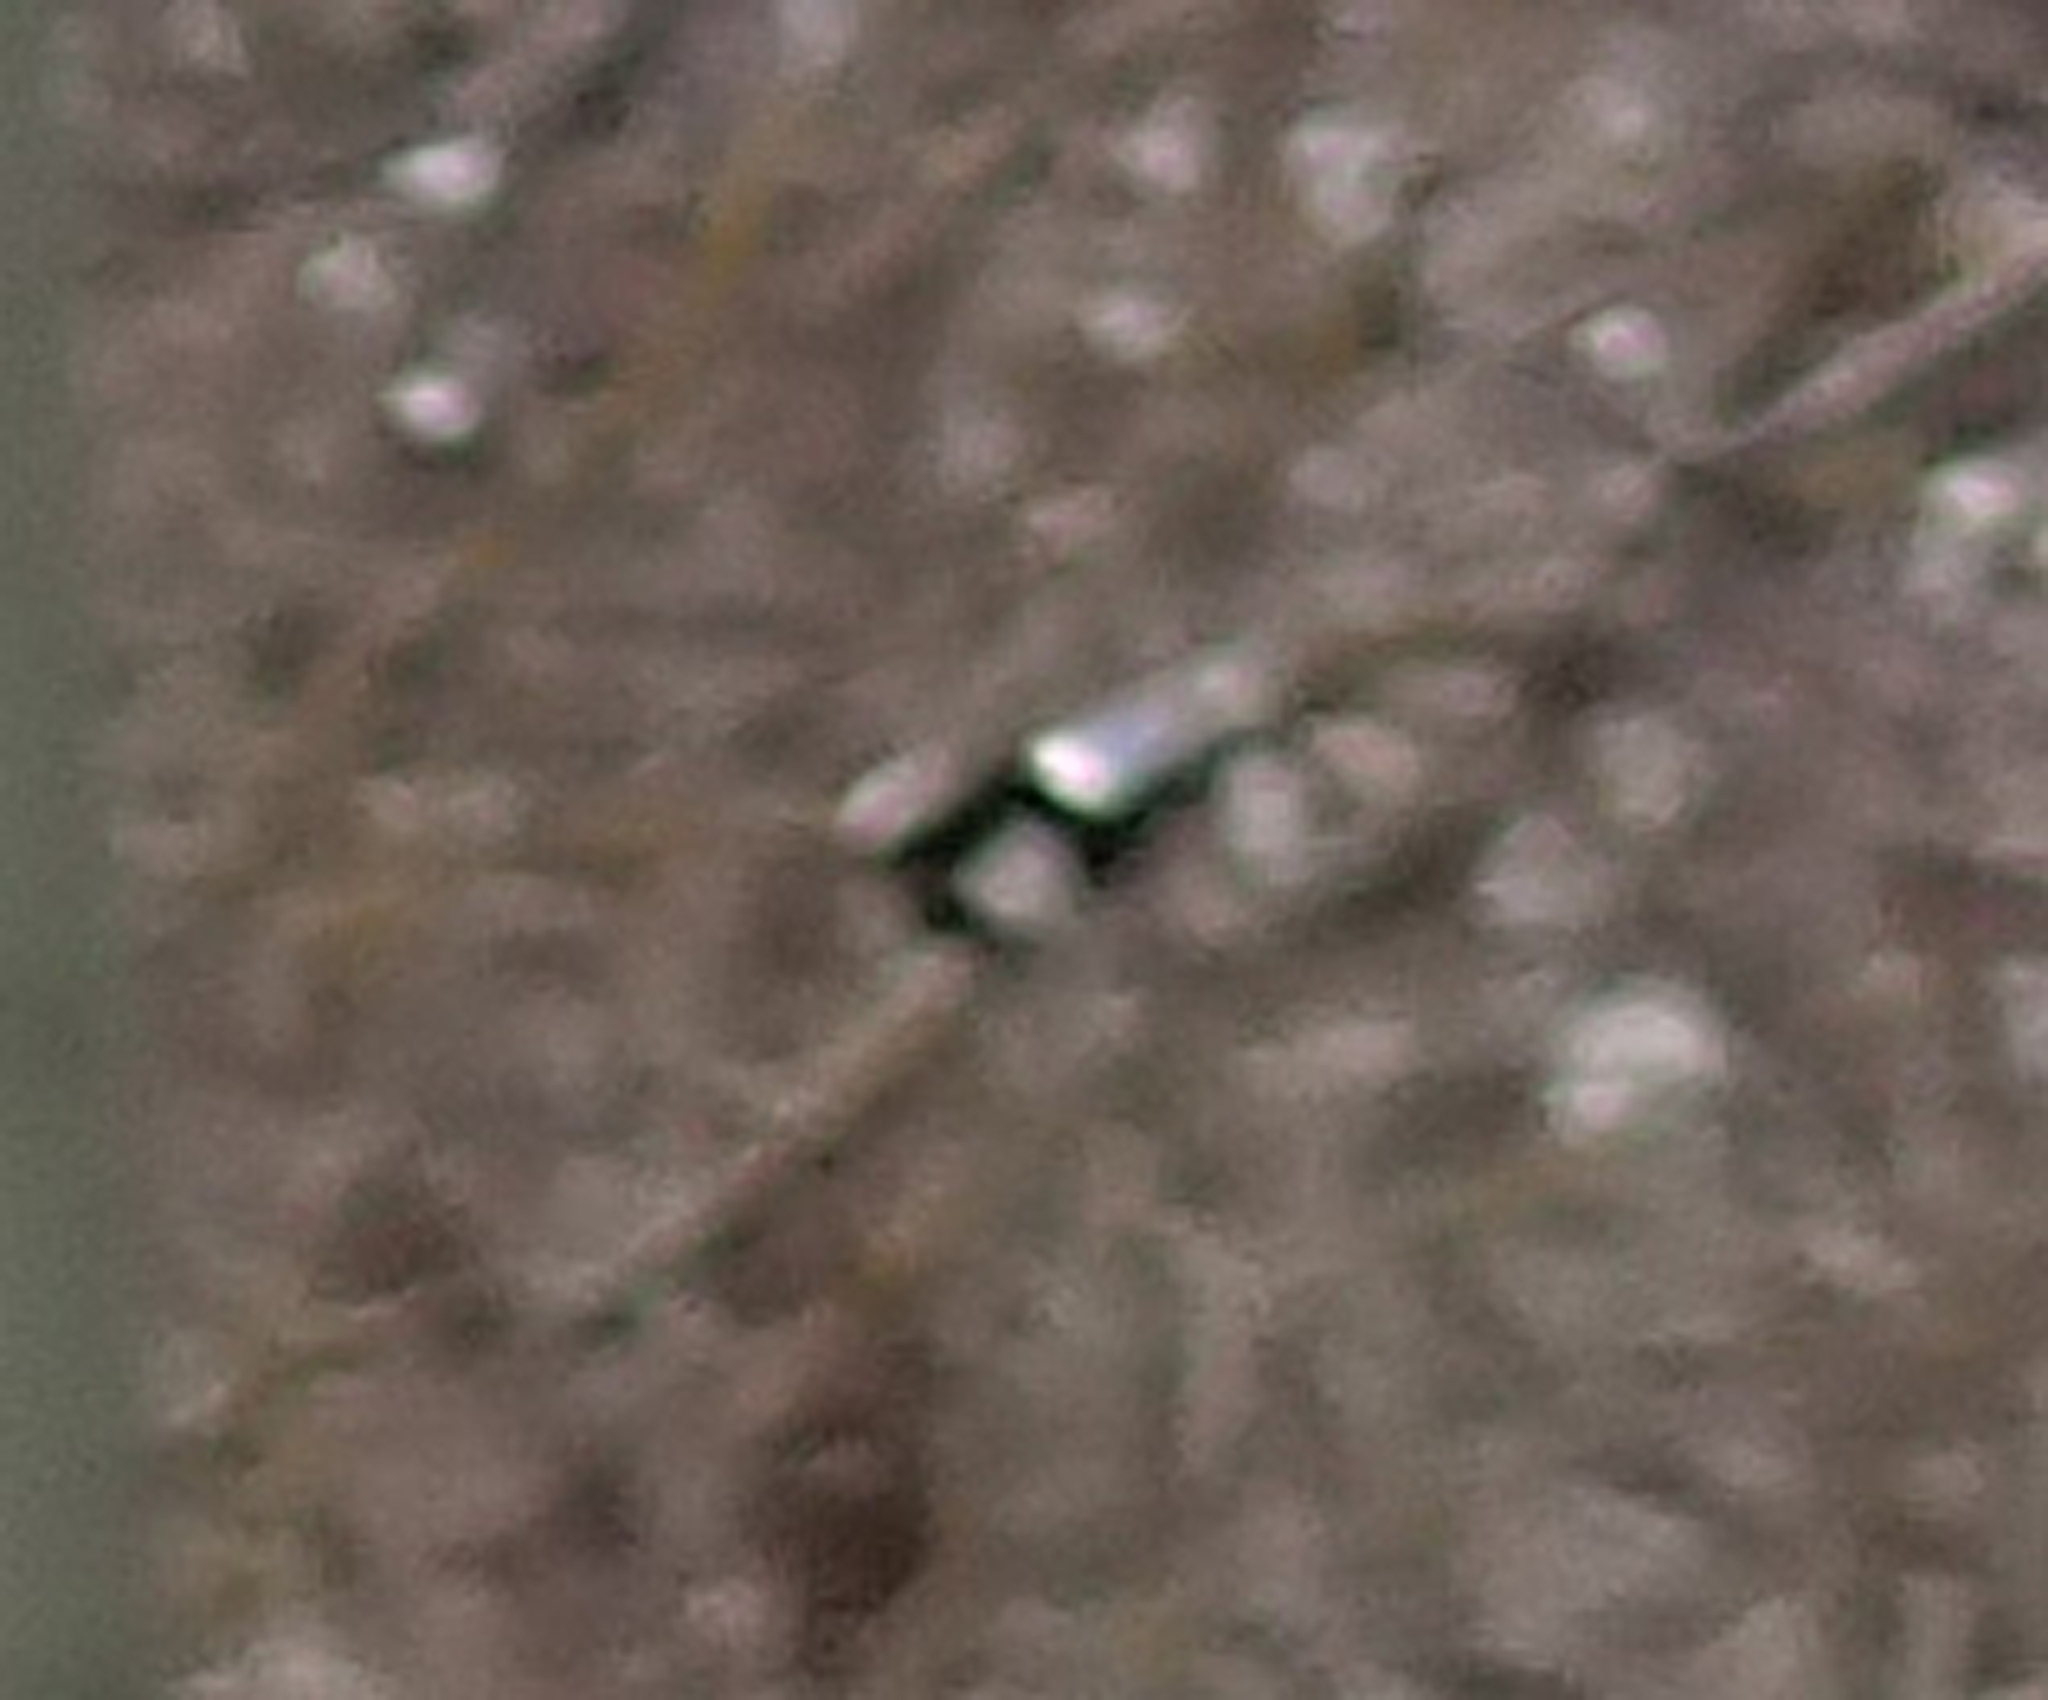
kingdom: Animalia
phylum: Chordata
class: Aves
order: Passeriformes
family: Corvidae
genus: Pica
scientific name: Pica pica
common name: Eurasian magpie
